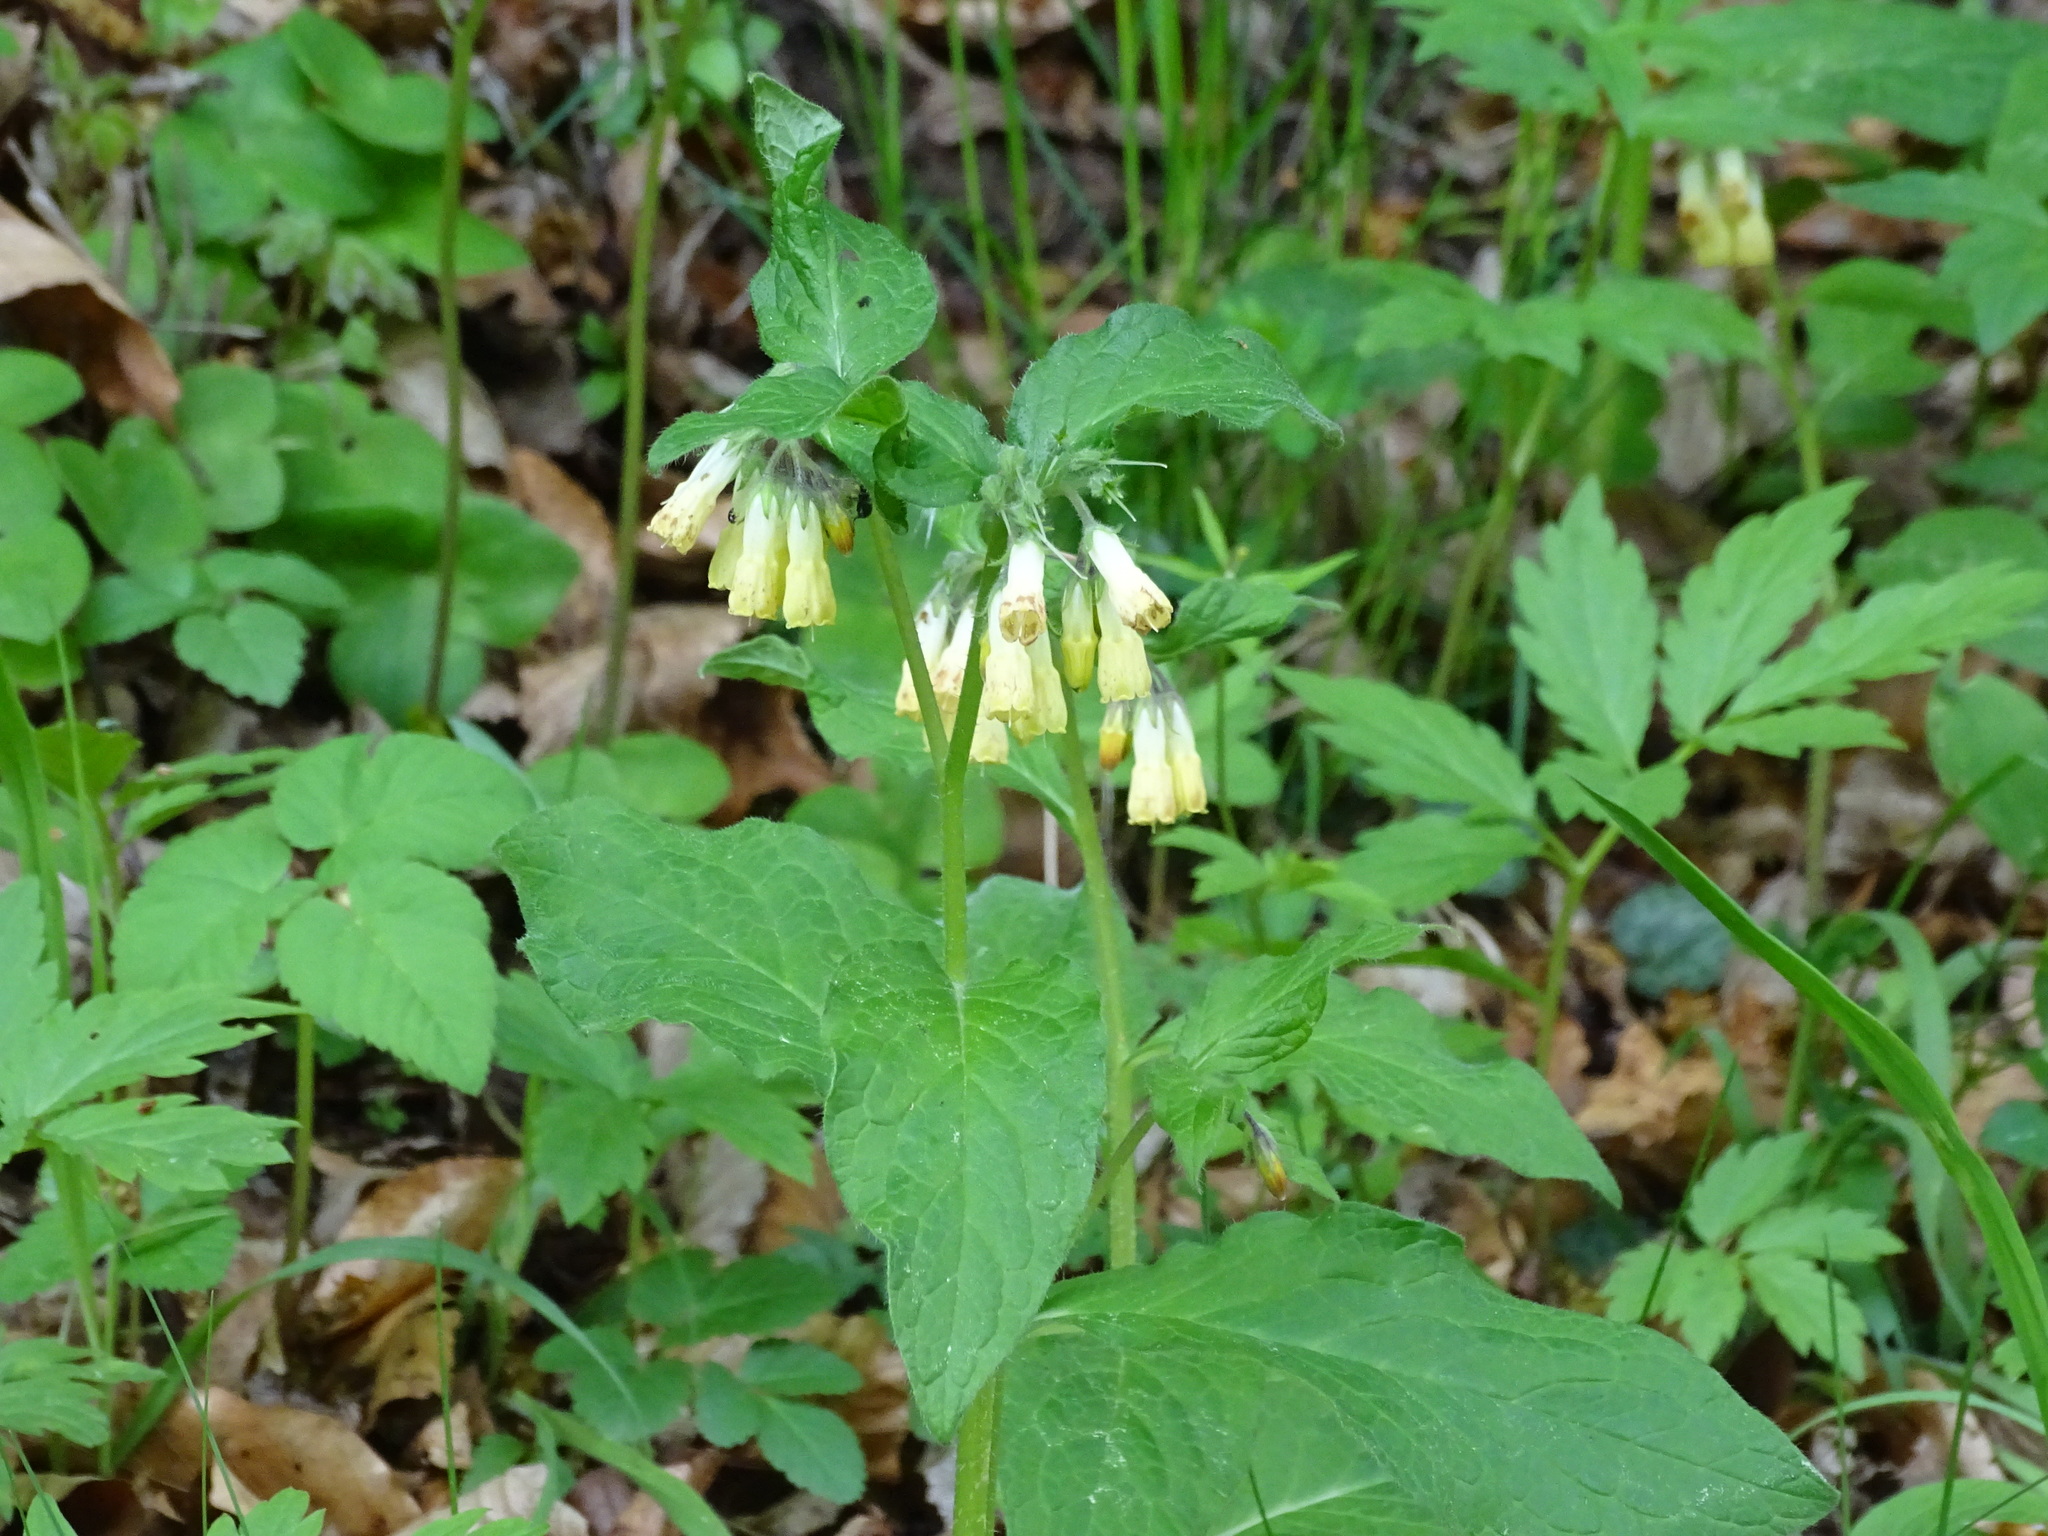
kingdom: Plantae
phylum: Tracheophyta
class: Magnoliopsida
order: Boraginales
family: Boraginaceae
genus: Symphytum
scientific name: Symphytum tuberosum
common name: Tuberous comfrey
